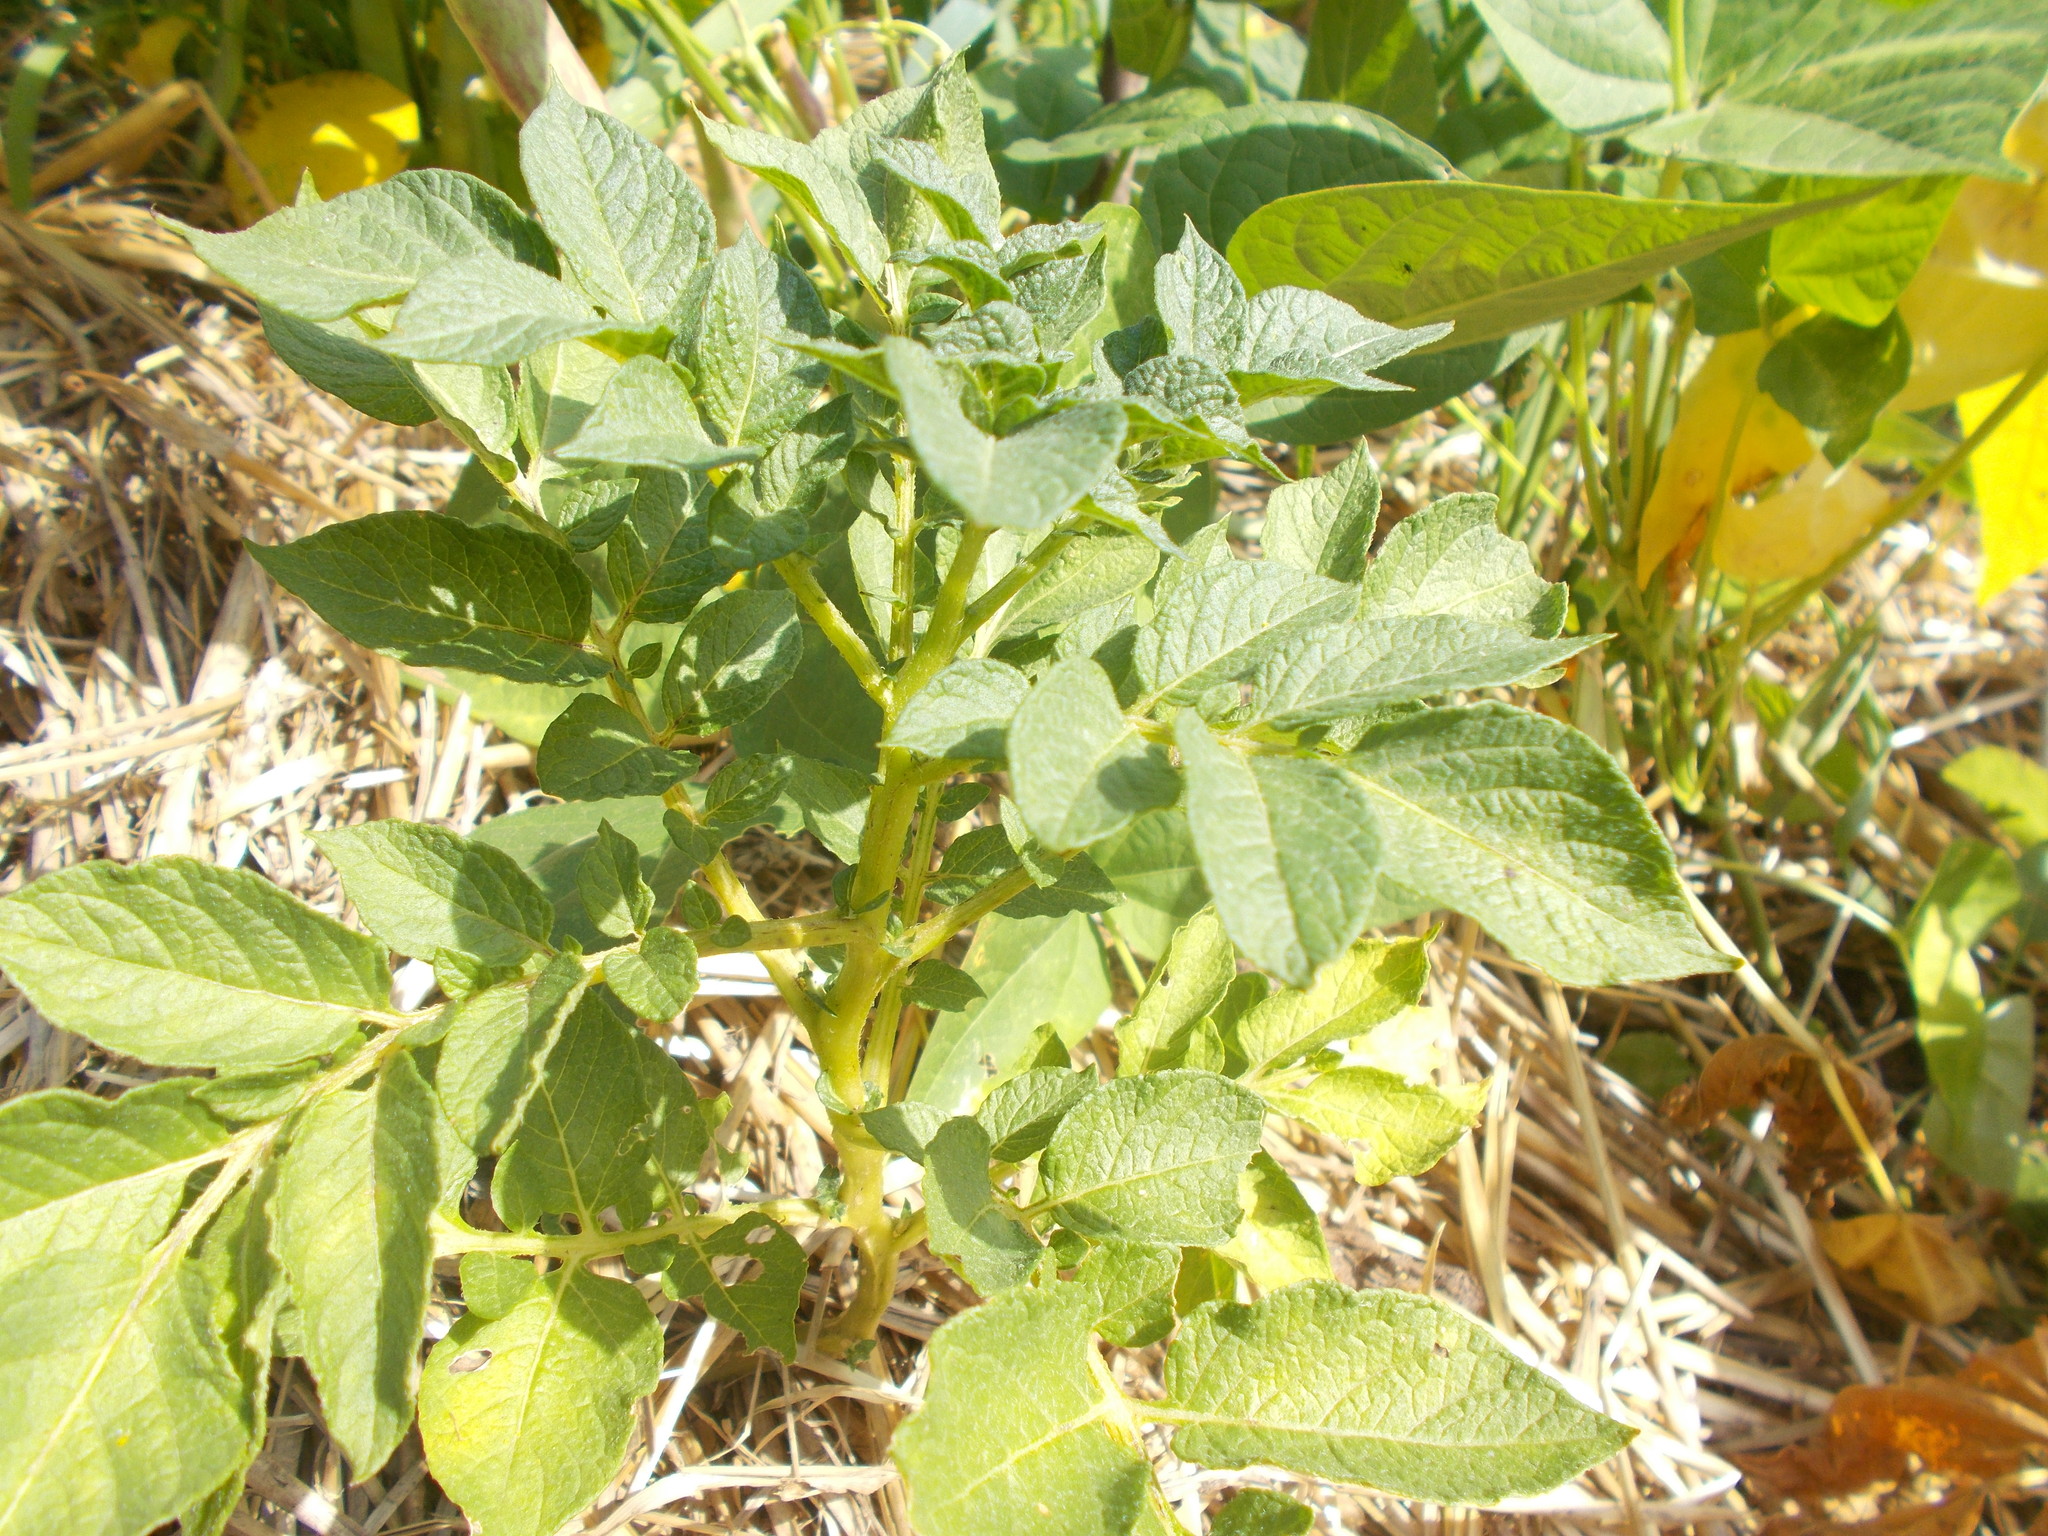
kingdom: Plantae
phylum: Tracheophyta
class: Magnoliopsida
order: Solanales
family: Solanaceae
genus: Solanum
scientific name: Solanum tuberosum
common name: Potato
